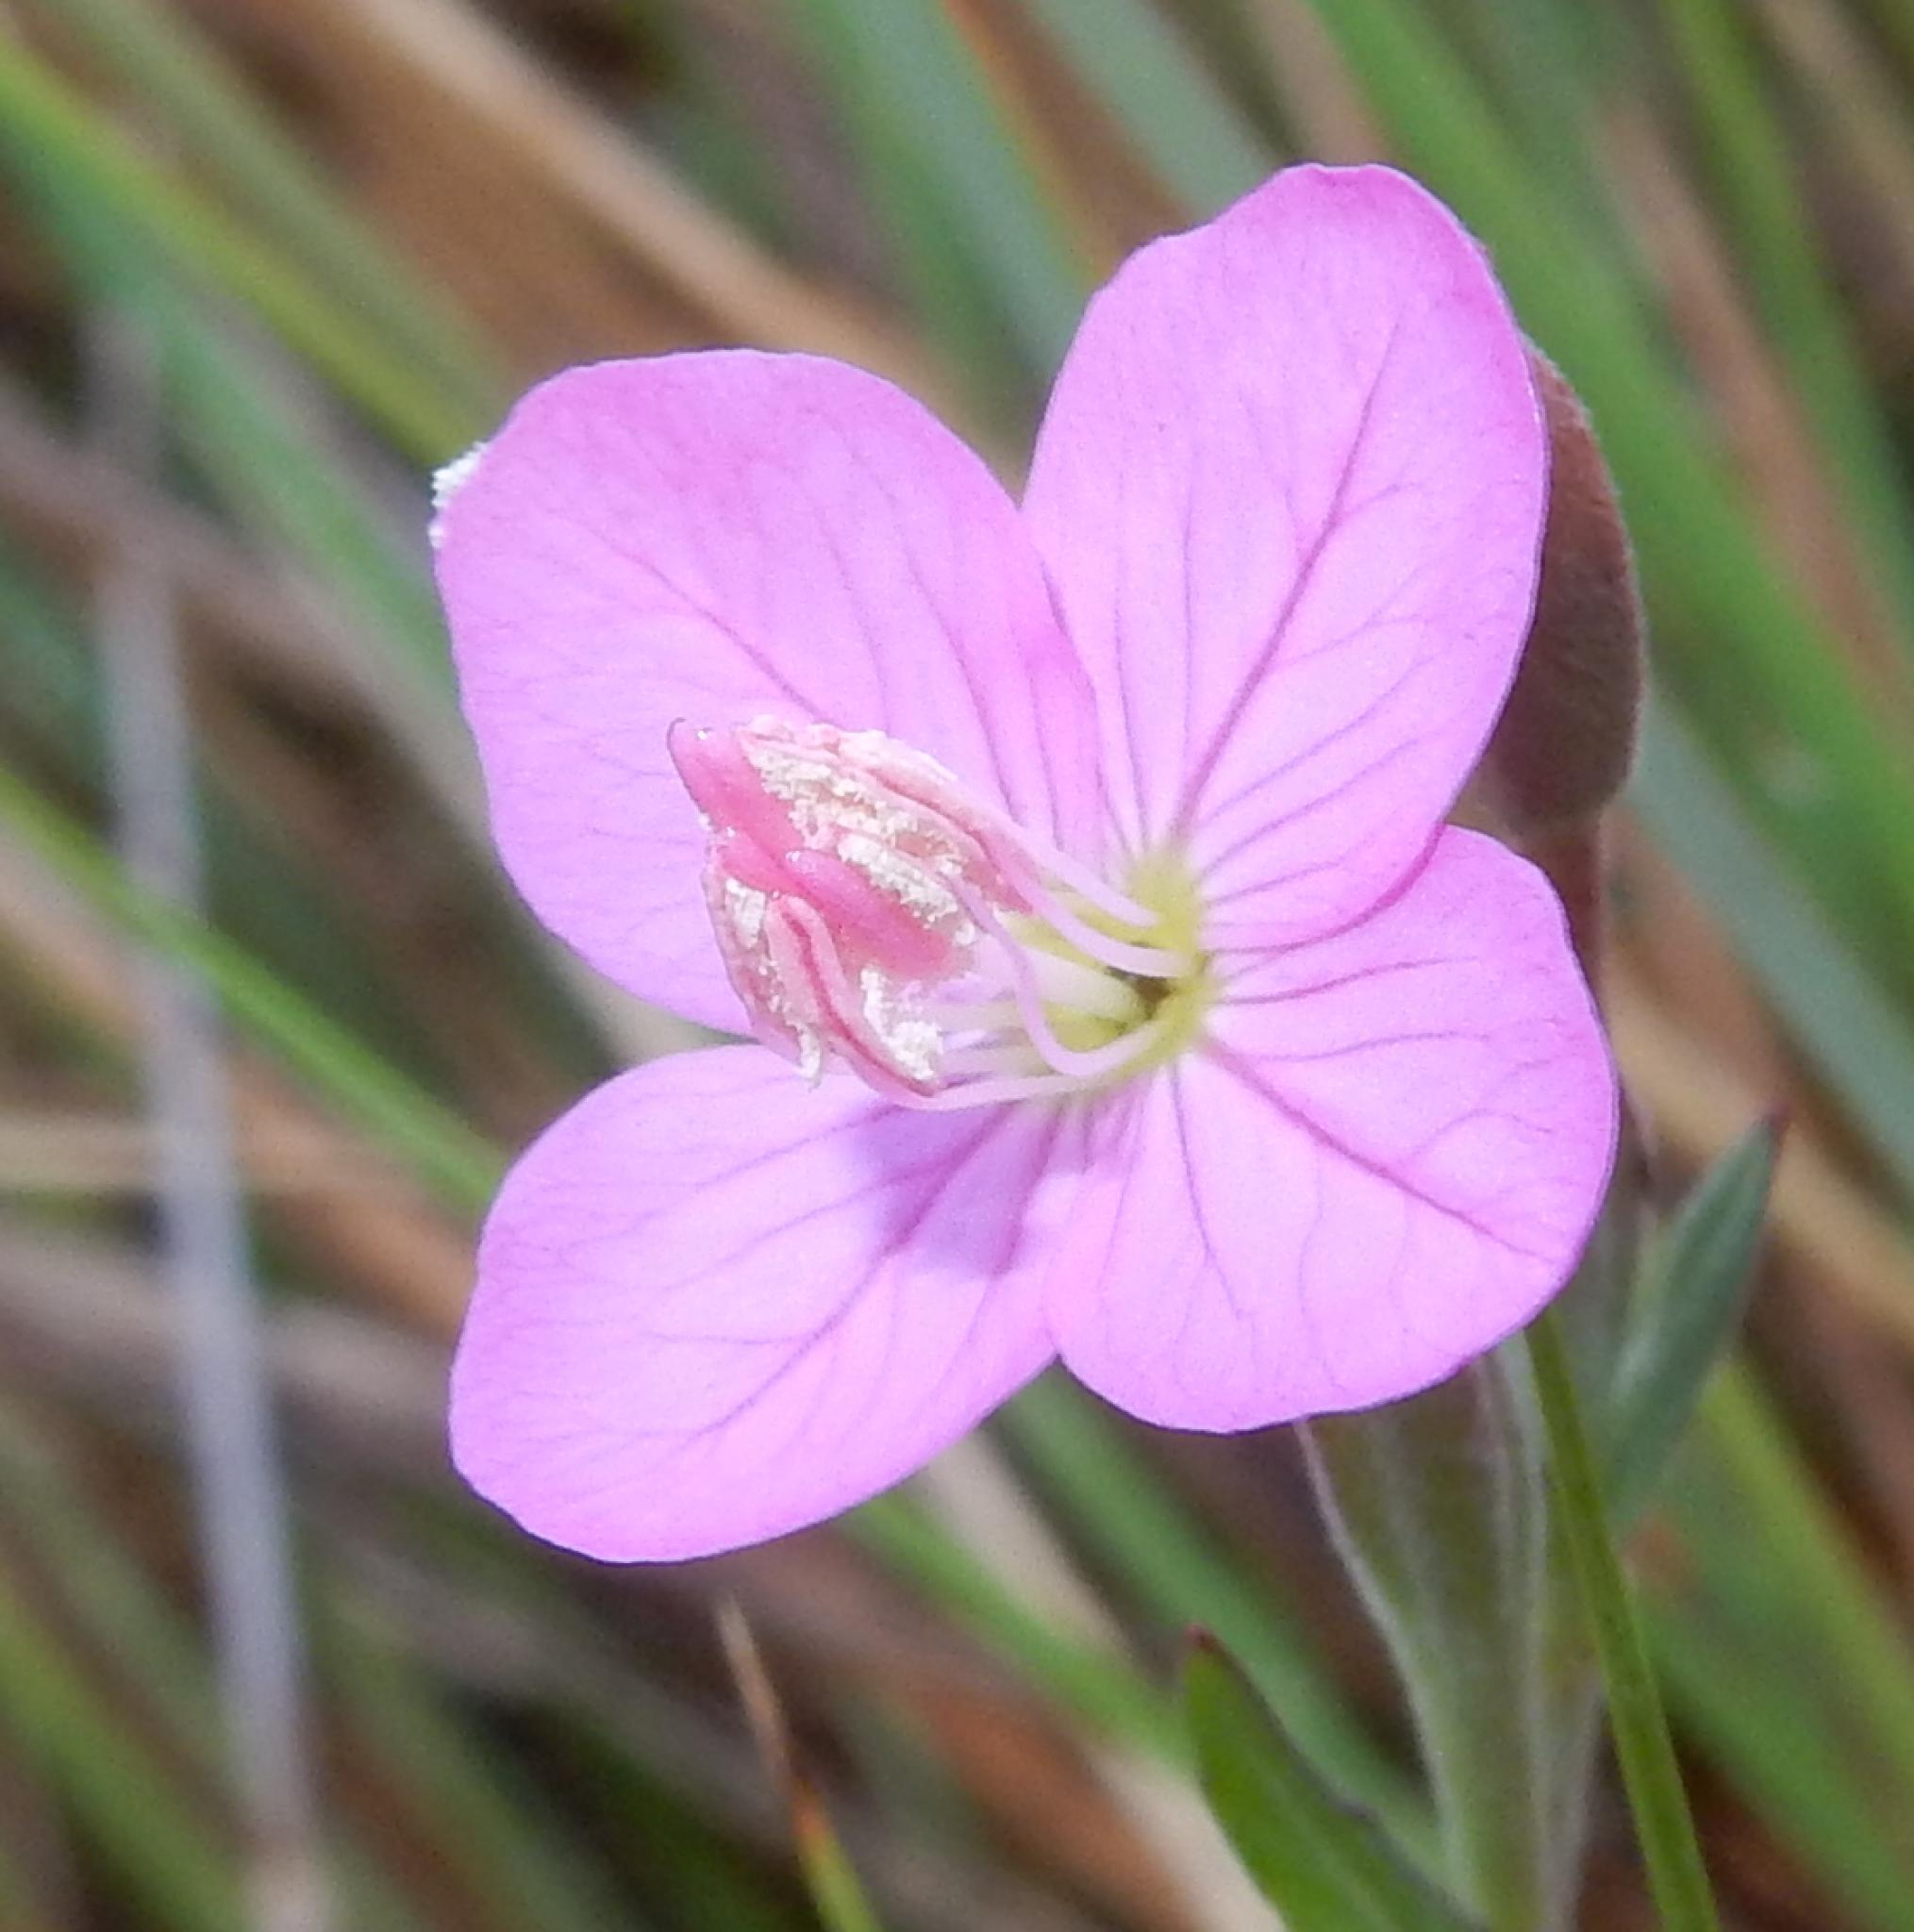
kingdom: Plantae
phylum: Tracheophyta
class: Magnoliopsida
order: Myrtales
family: Onagraceae
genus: Oenothera
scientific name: Oenothera rosea
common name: Rosy evening-primrose
